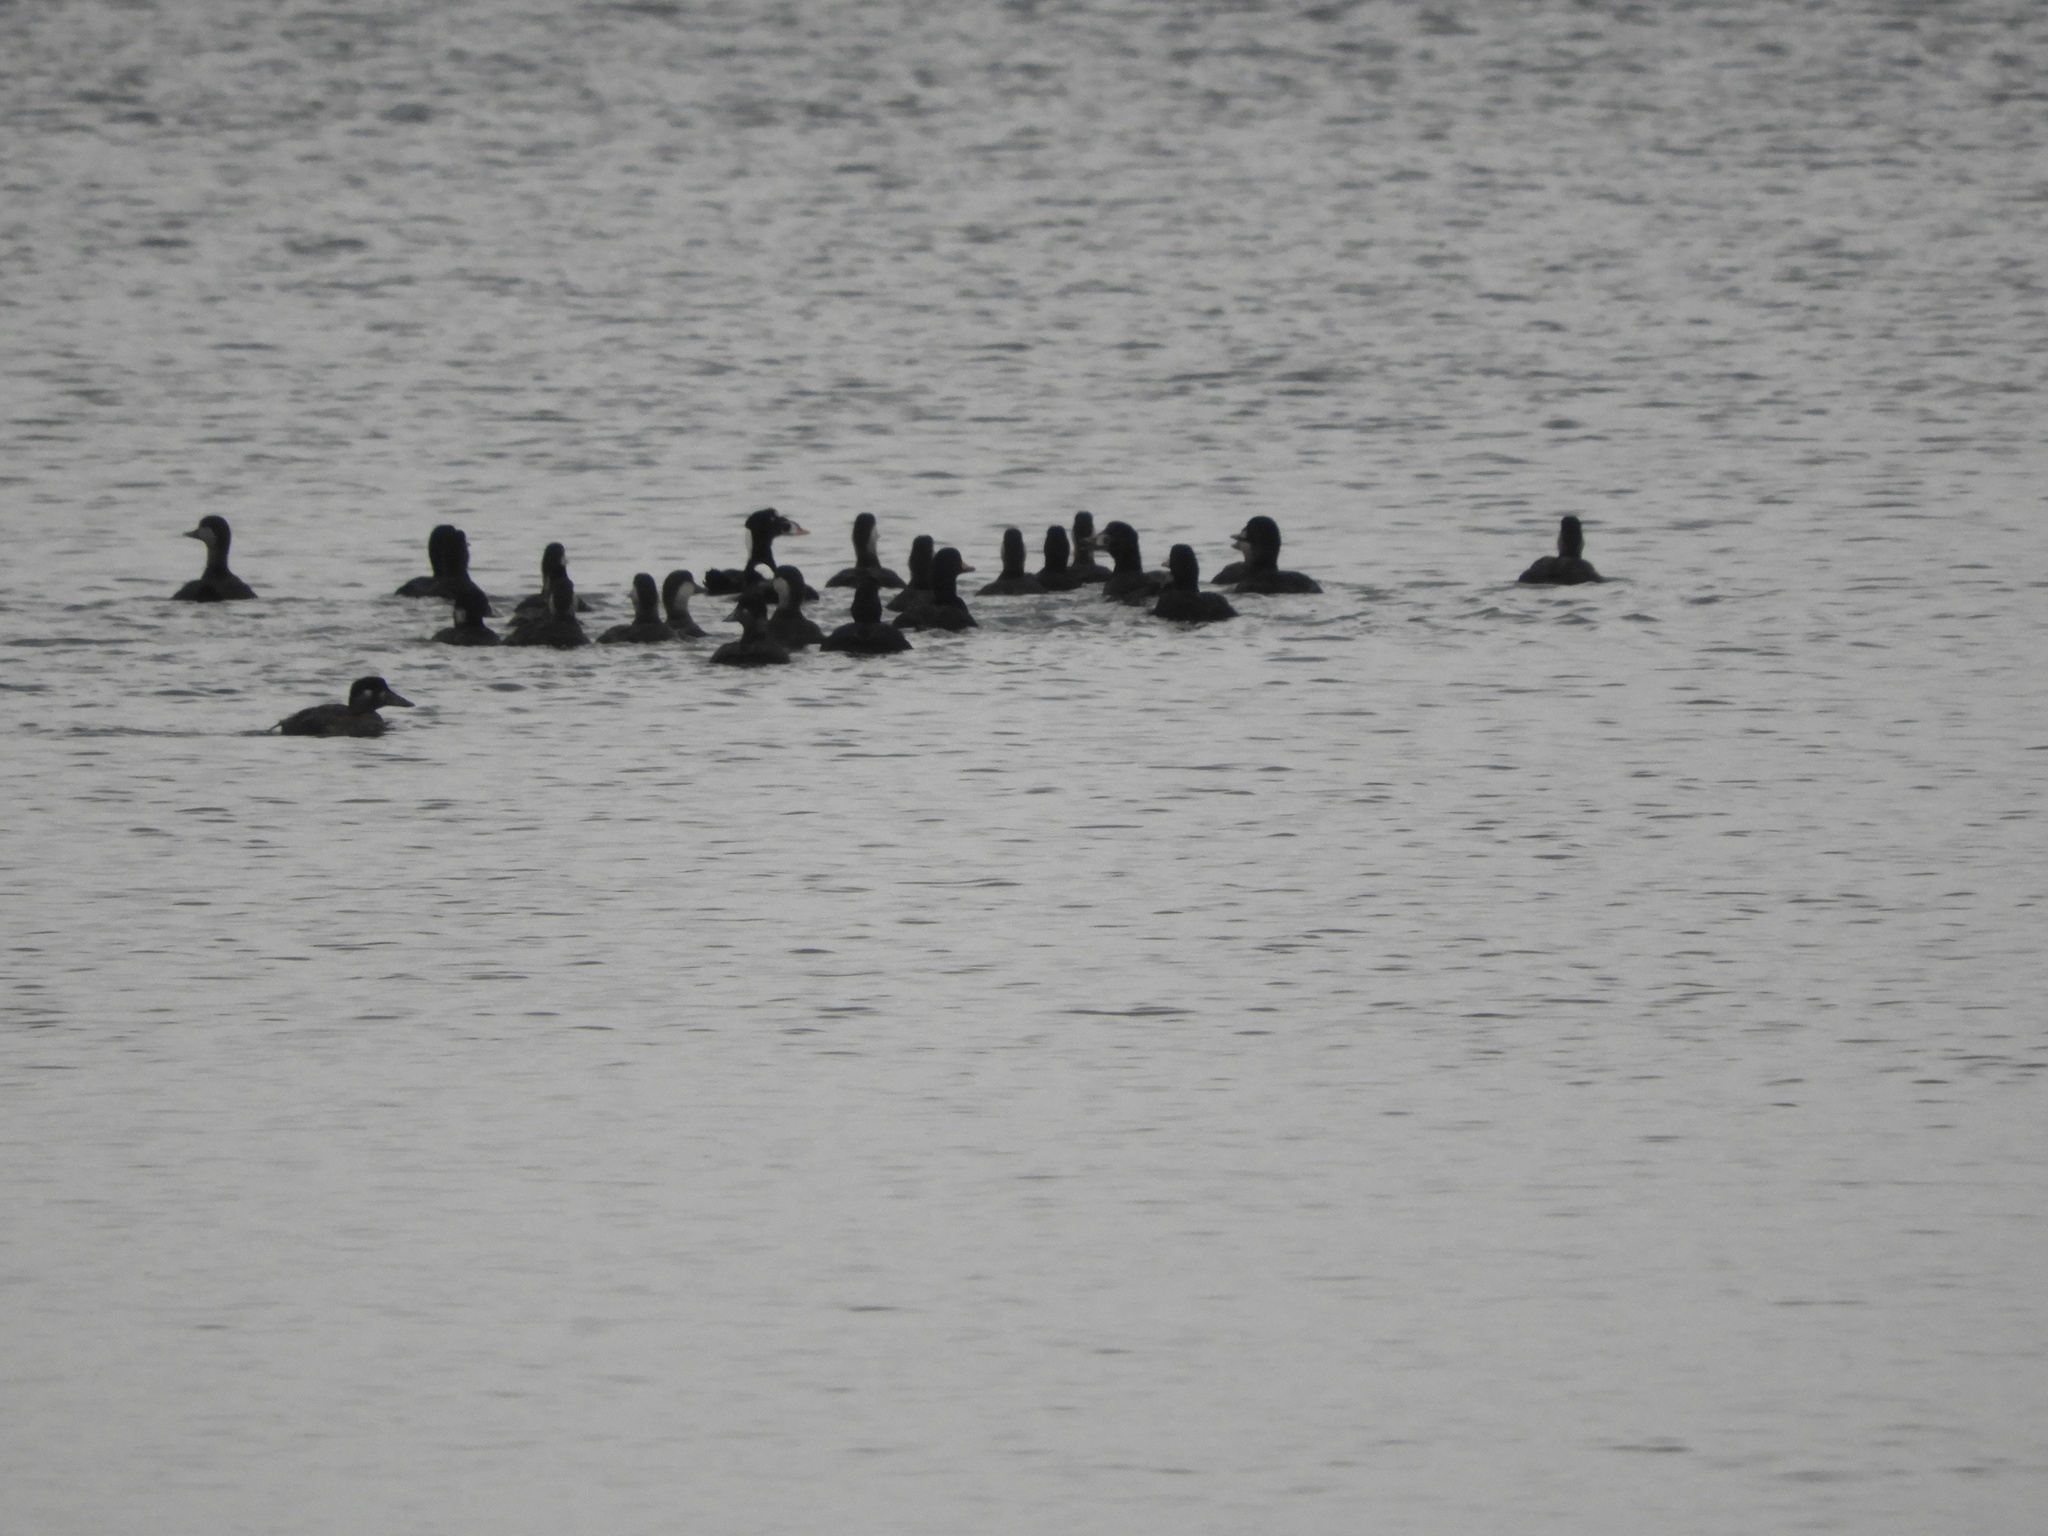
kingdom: Animalia
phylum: Chordata
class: Aves
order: Anseriformes
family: Anatidae
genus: Melanitta
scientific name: Melanitta americana
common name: Black scoter
